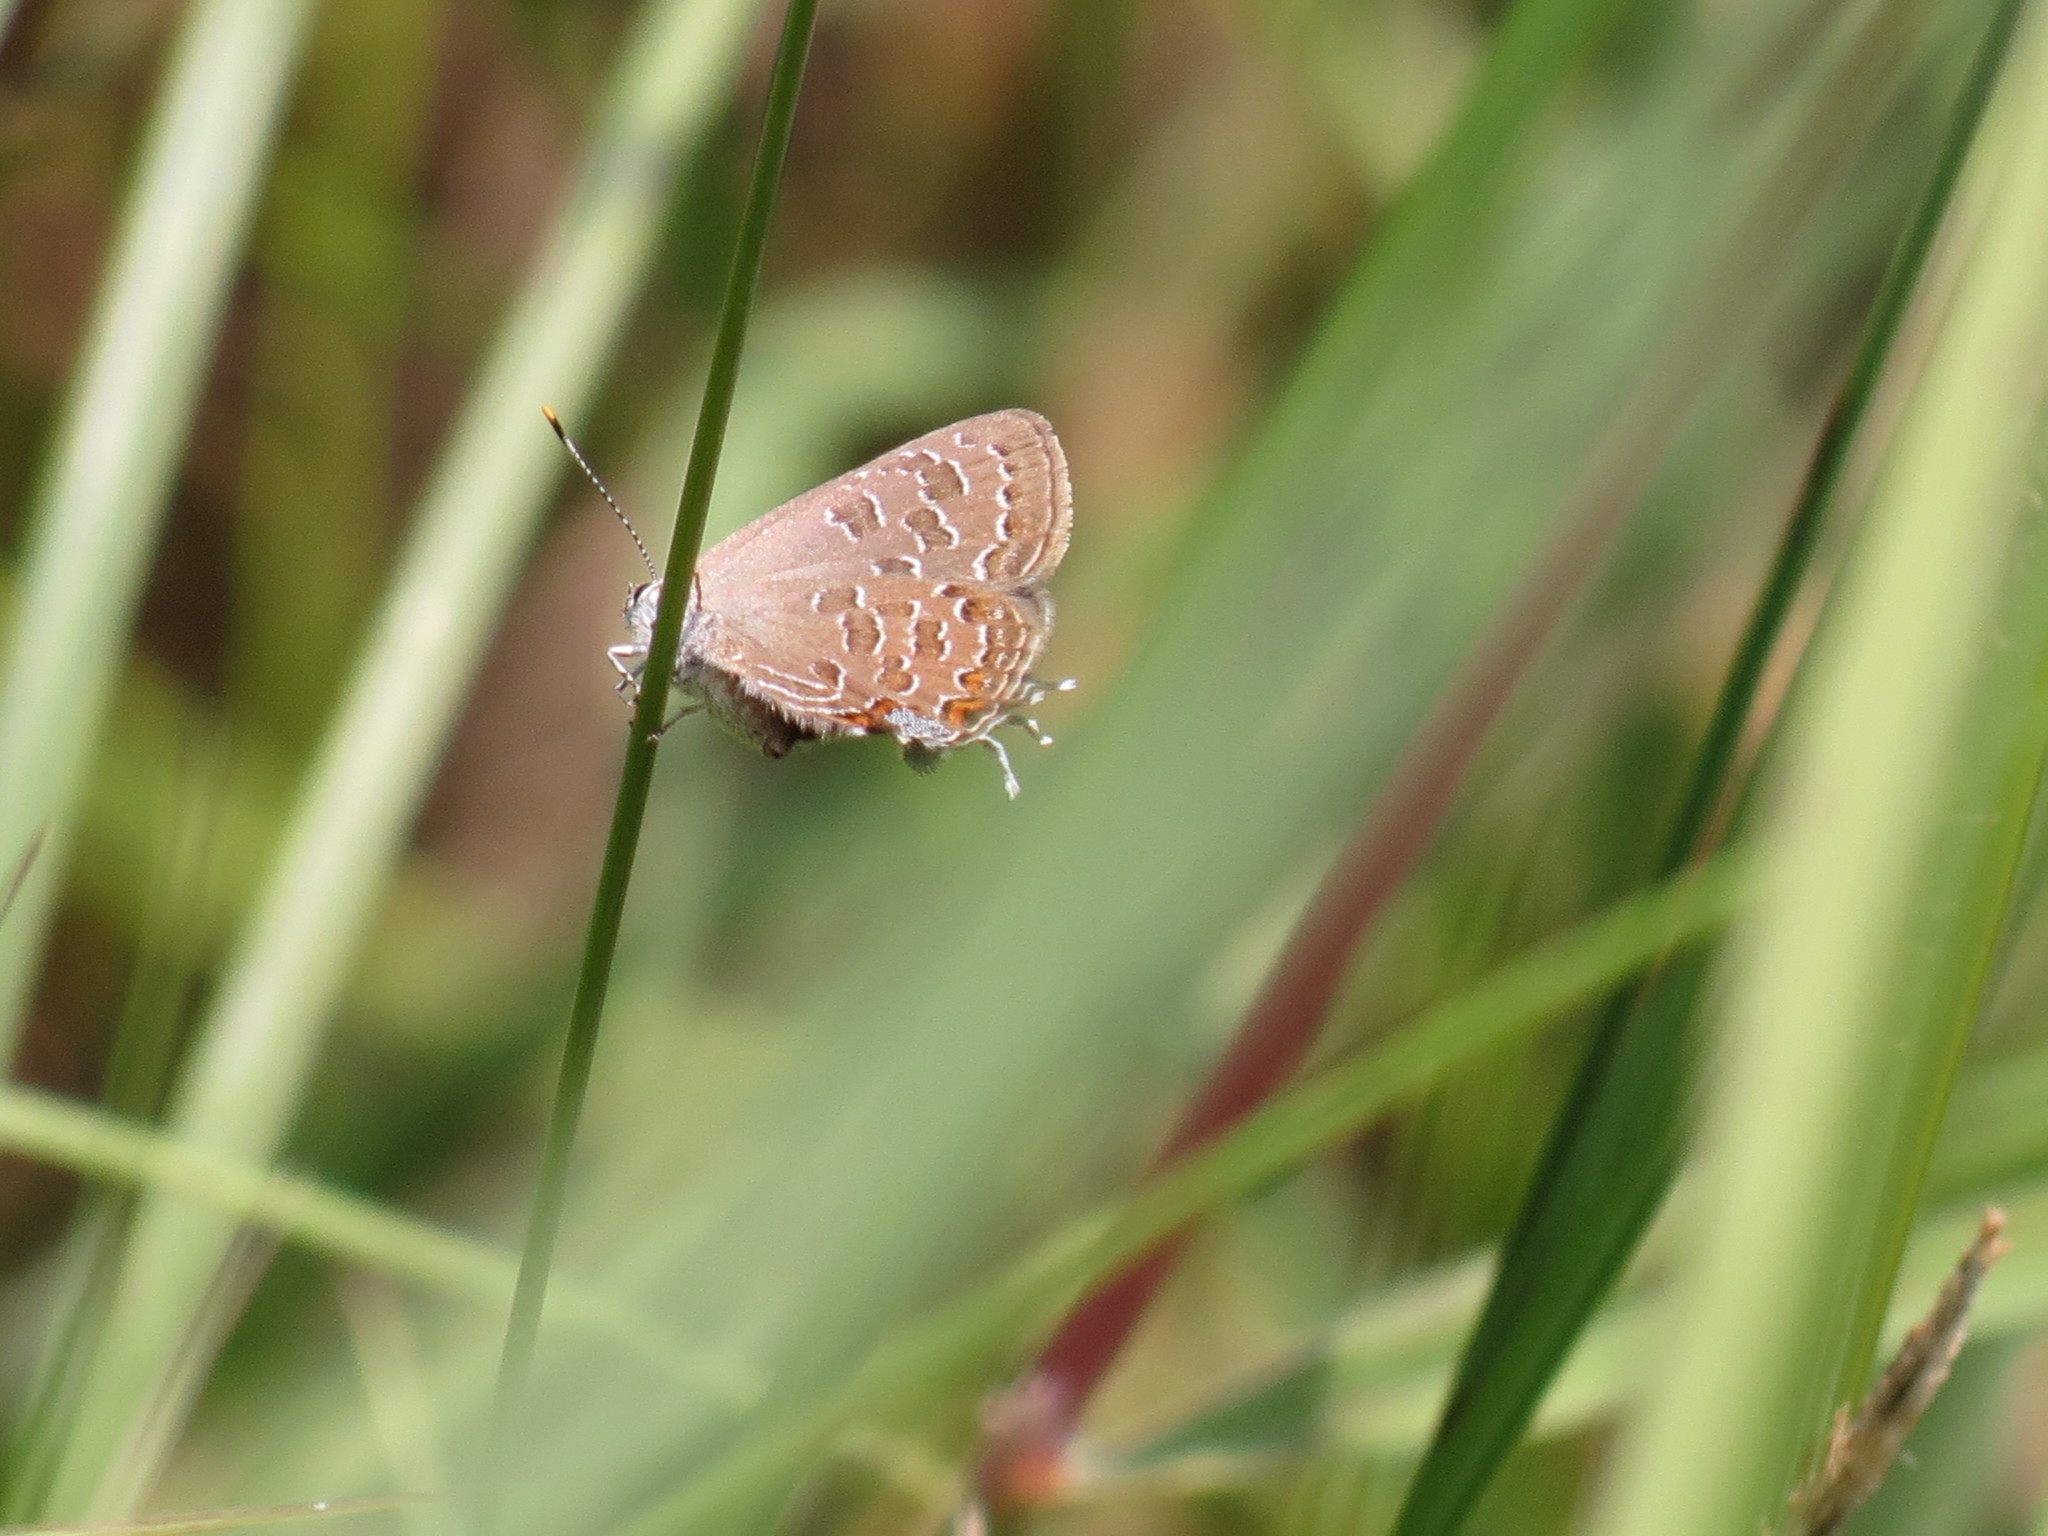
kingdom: Animalia
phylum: Arthropoda
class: Insecta
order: Lepidoptera
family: Lycaenidae
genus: Satyrium
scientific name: Satyrium liparops
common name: Striped hairstreak
